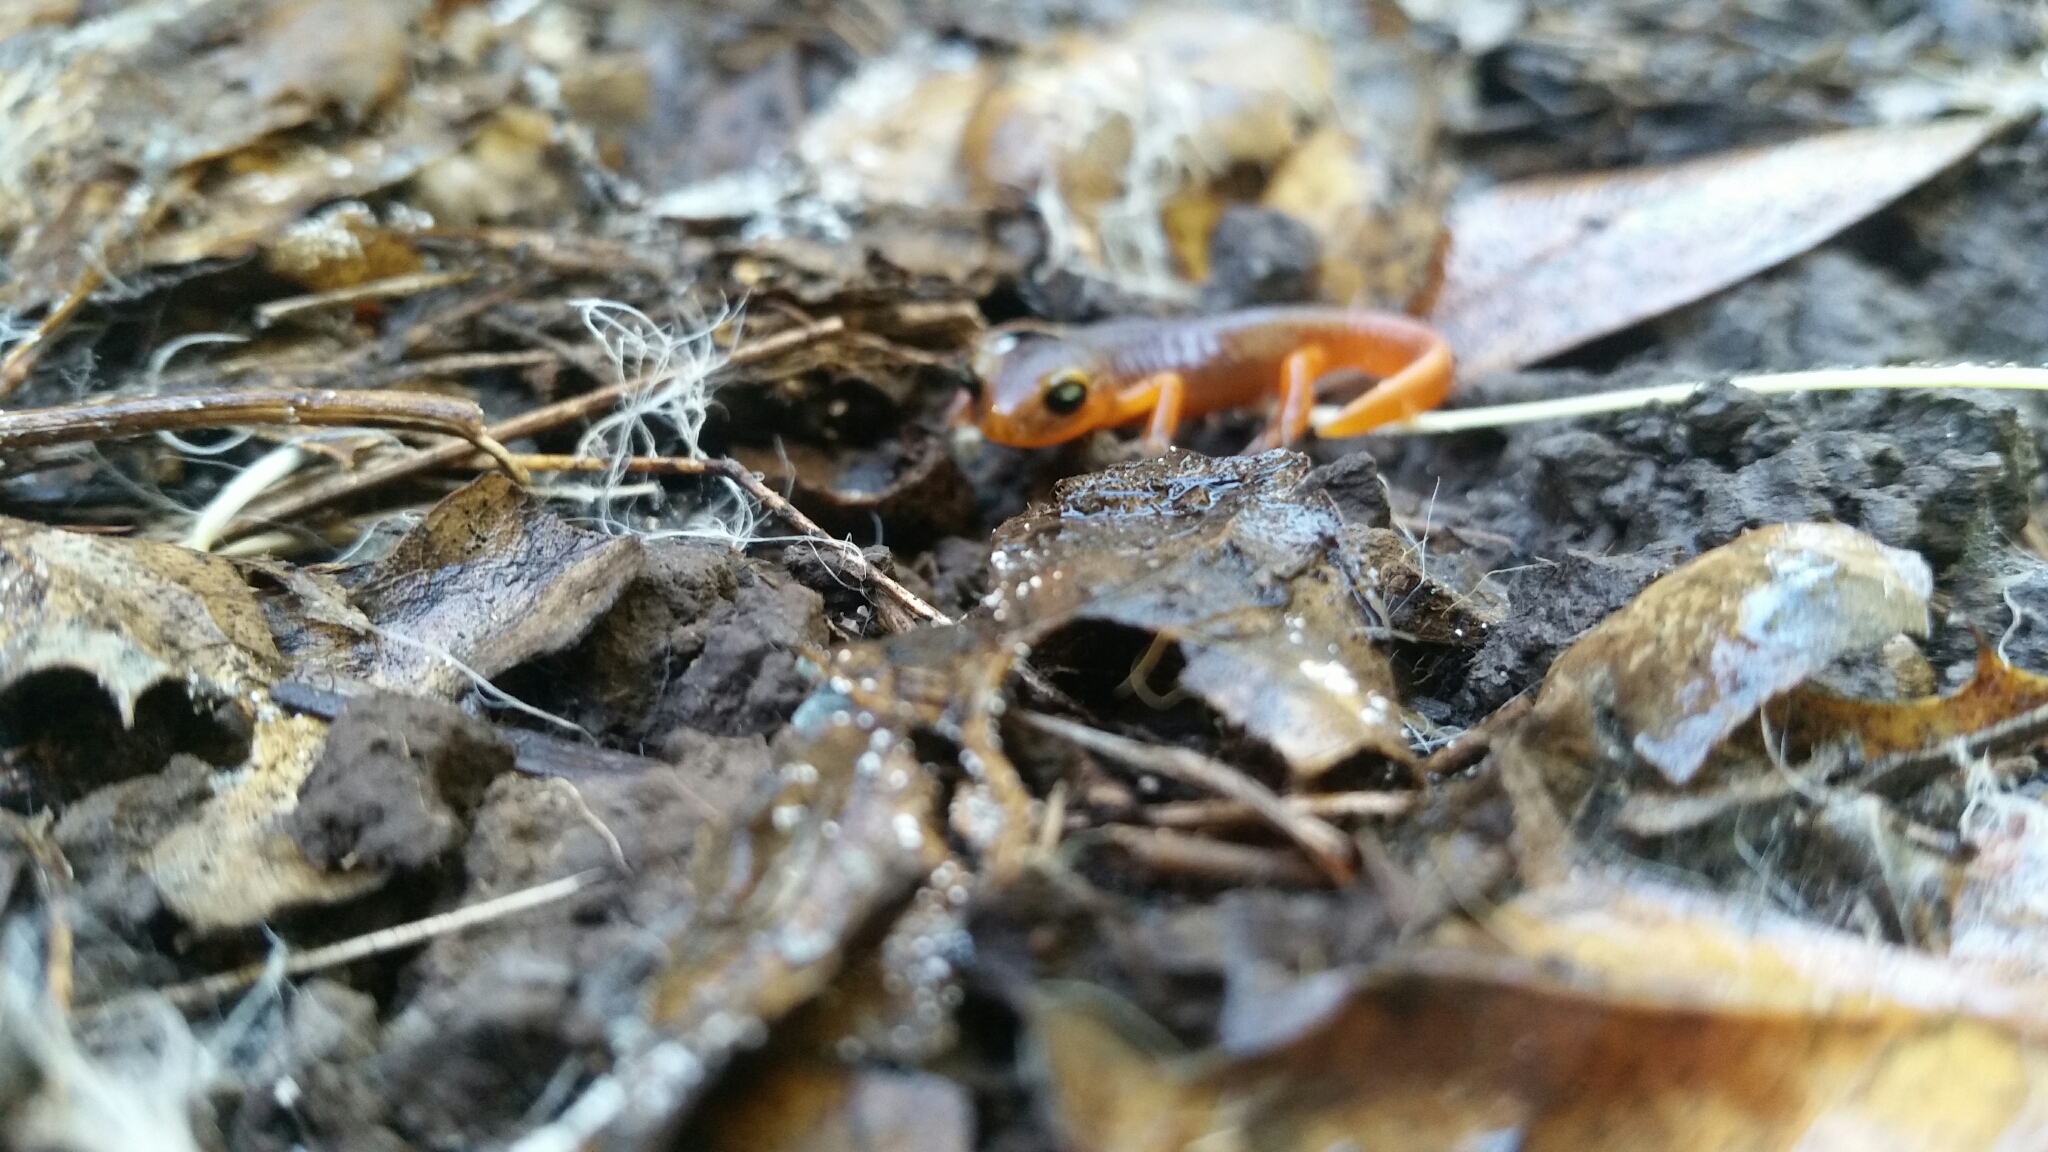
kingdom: Animalia
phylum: Chordata
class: Amphibia
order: Caudata
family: Plethodontidae
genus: Ensatina
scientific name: Ensatina eschscholtzii
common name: Ensatina
